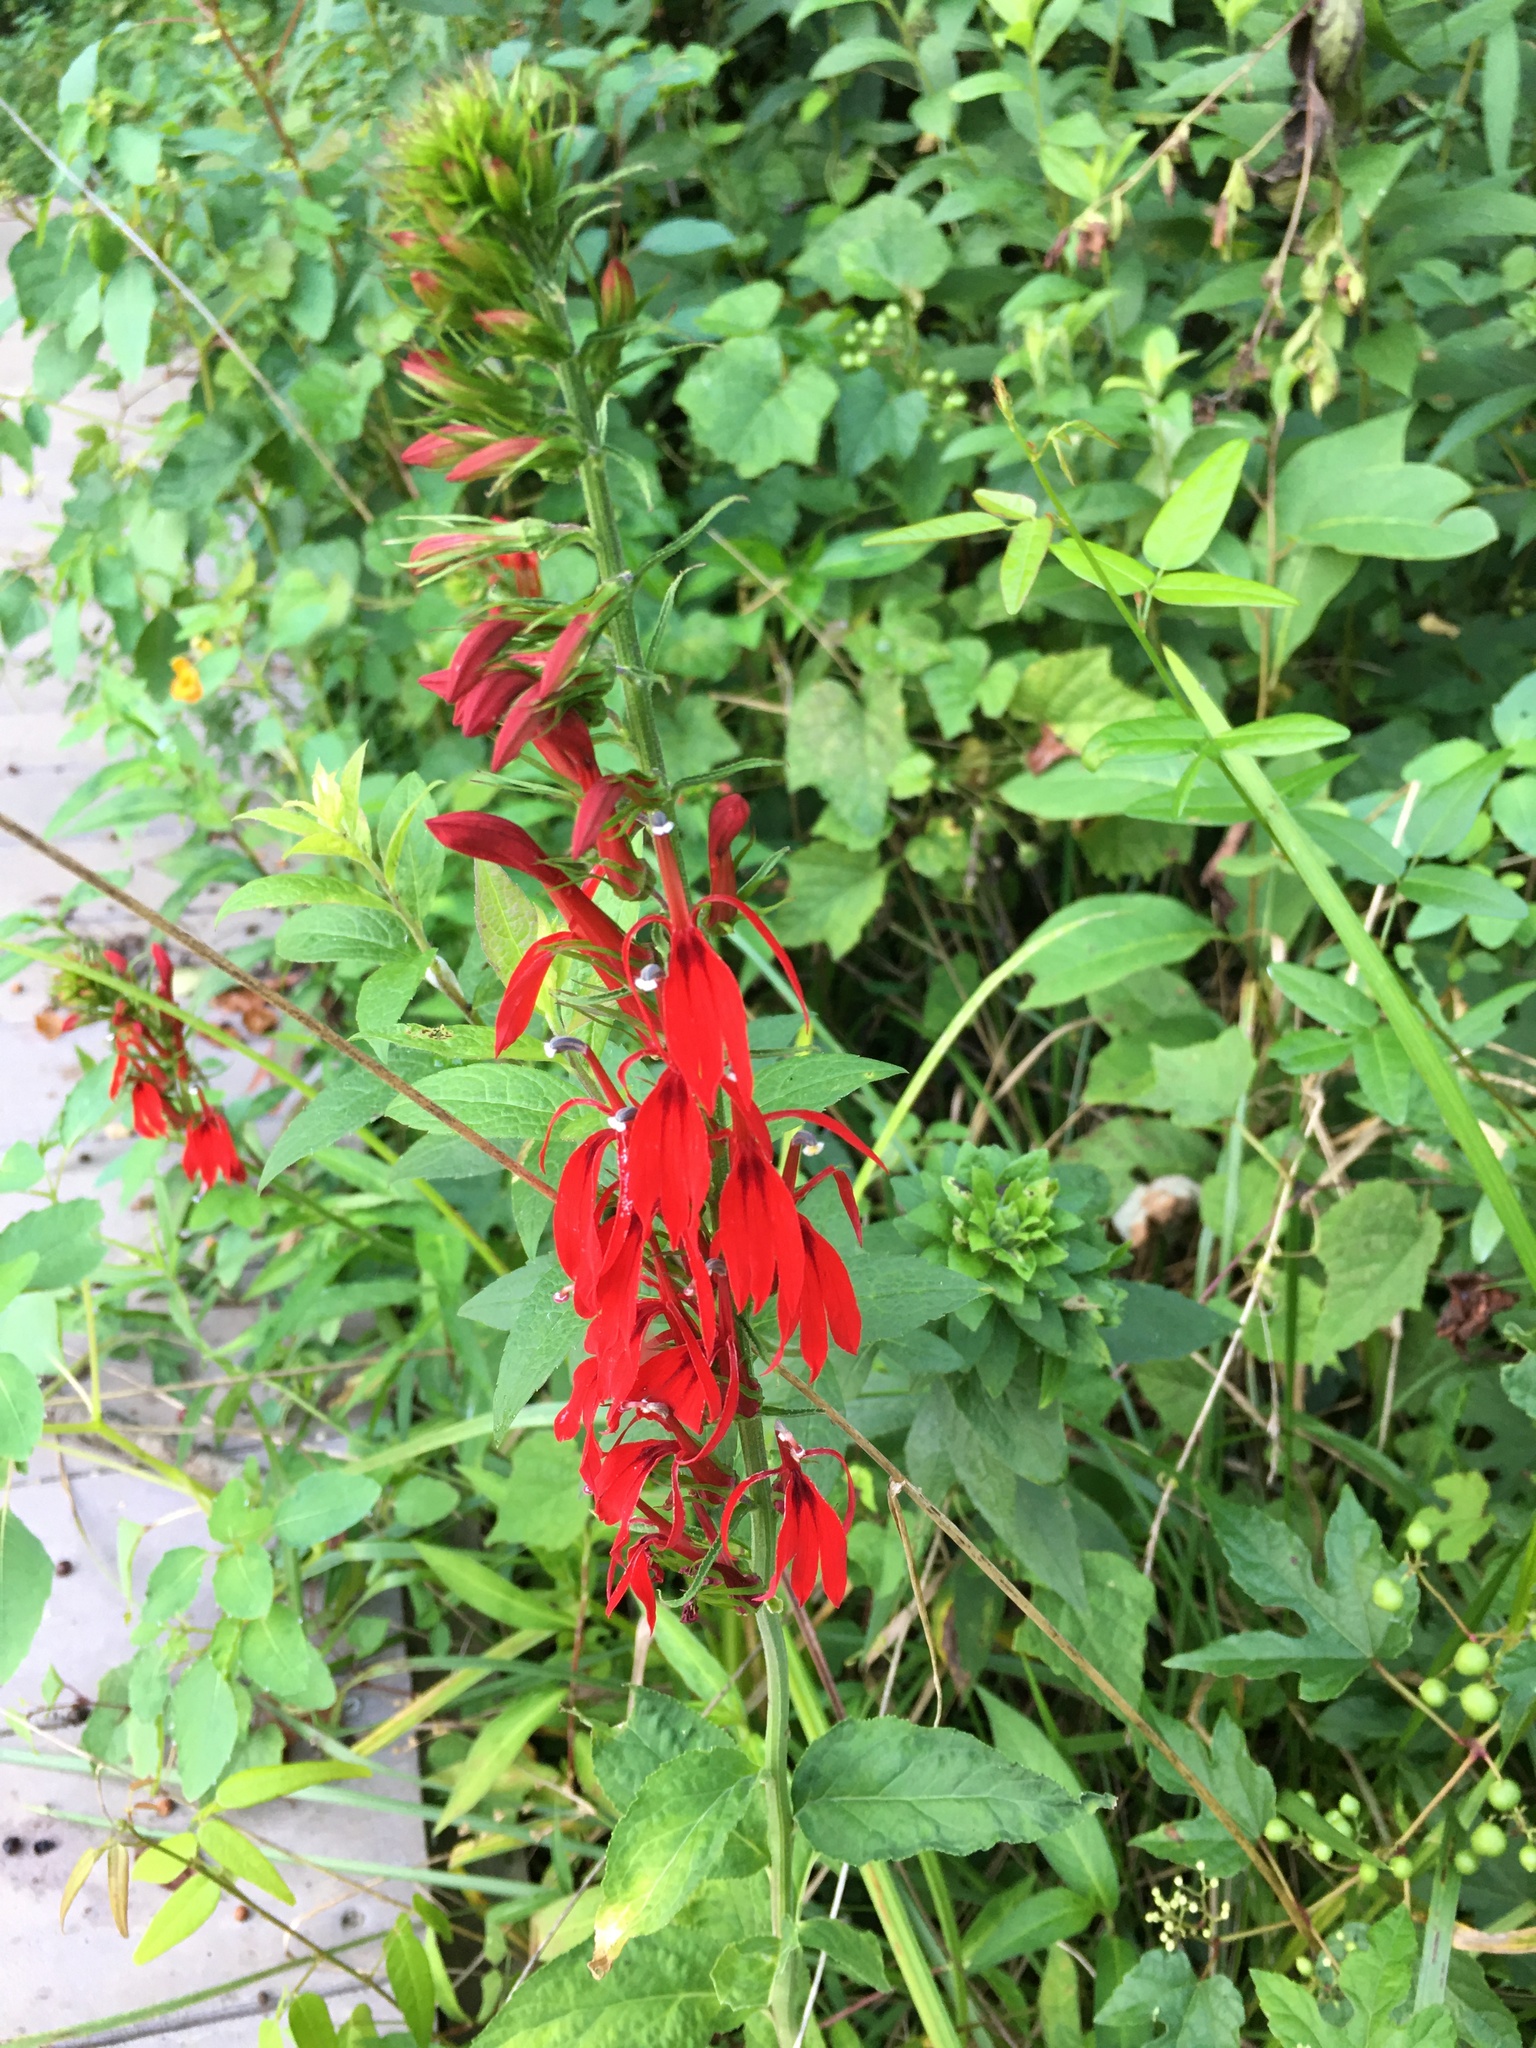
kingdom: Plantae
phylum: Tracheophyta
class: Magnoliopsida
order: Asterales
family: Campanulaceae
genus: Lobelia
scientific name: Lobelia cardinalis
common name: Cardinal flower
